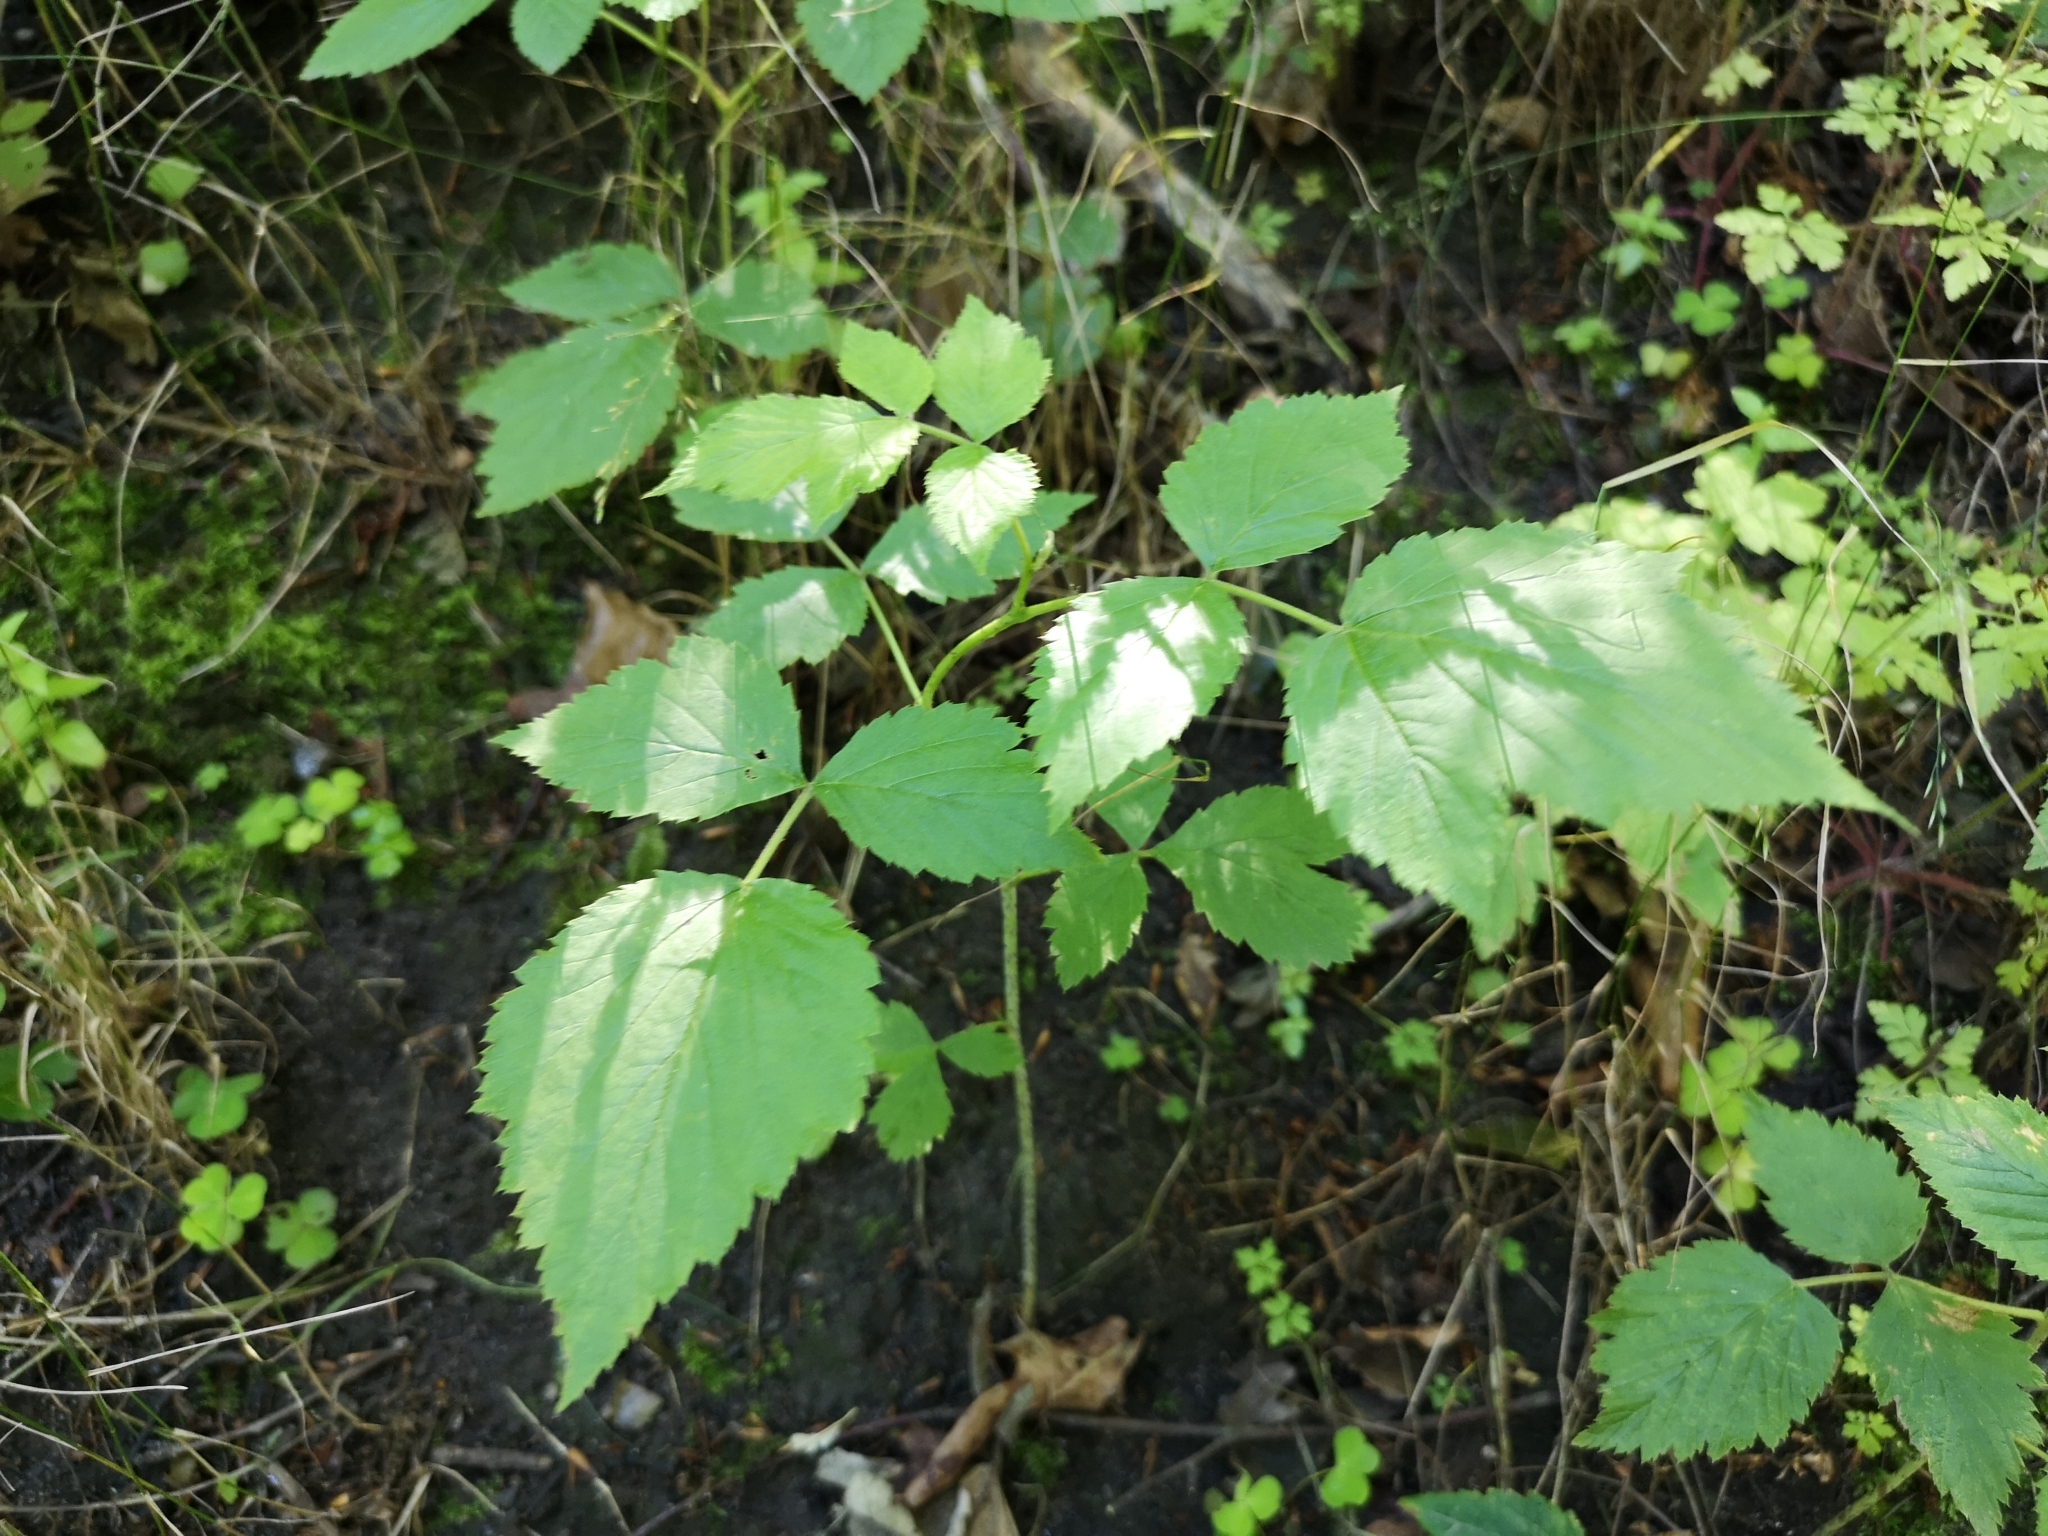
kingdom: Plantae
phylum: Tracheophyta
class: Magnoliopsida
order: Rosales
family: Rosaceae
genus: Rubus
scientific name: Rubus idaeus
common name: Raspberry
